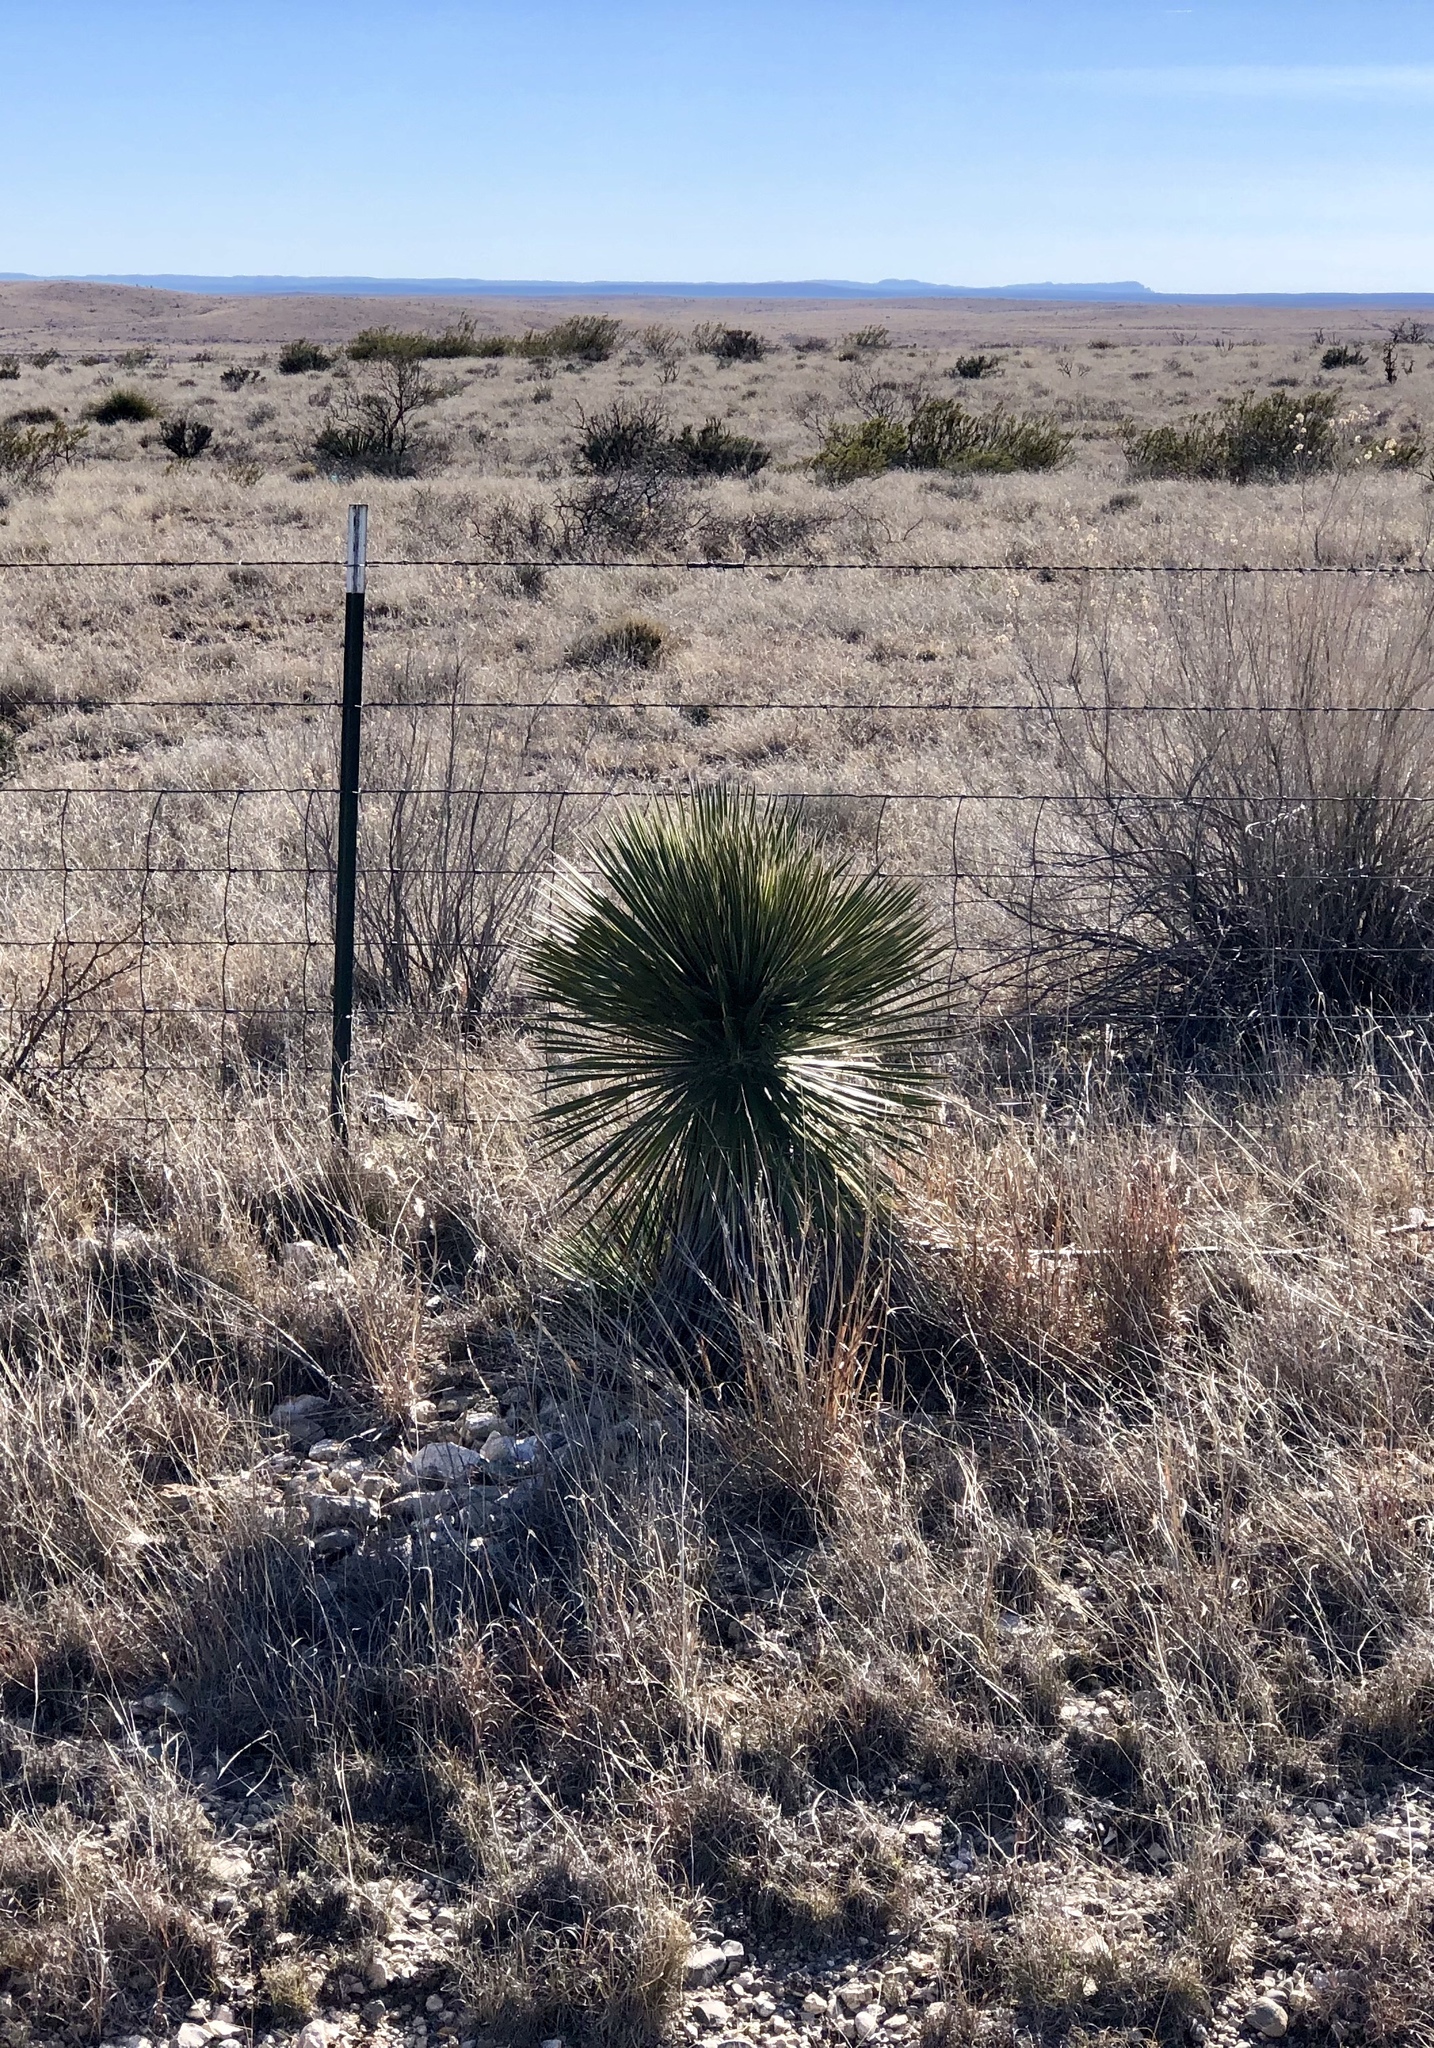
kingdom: Plantae
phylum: Tracheophyta
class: Liliopsida
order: Asparagales
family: Asparagaceae
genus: Yucca
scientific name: Yucca elata
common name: Palmella
